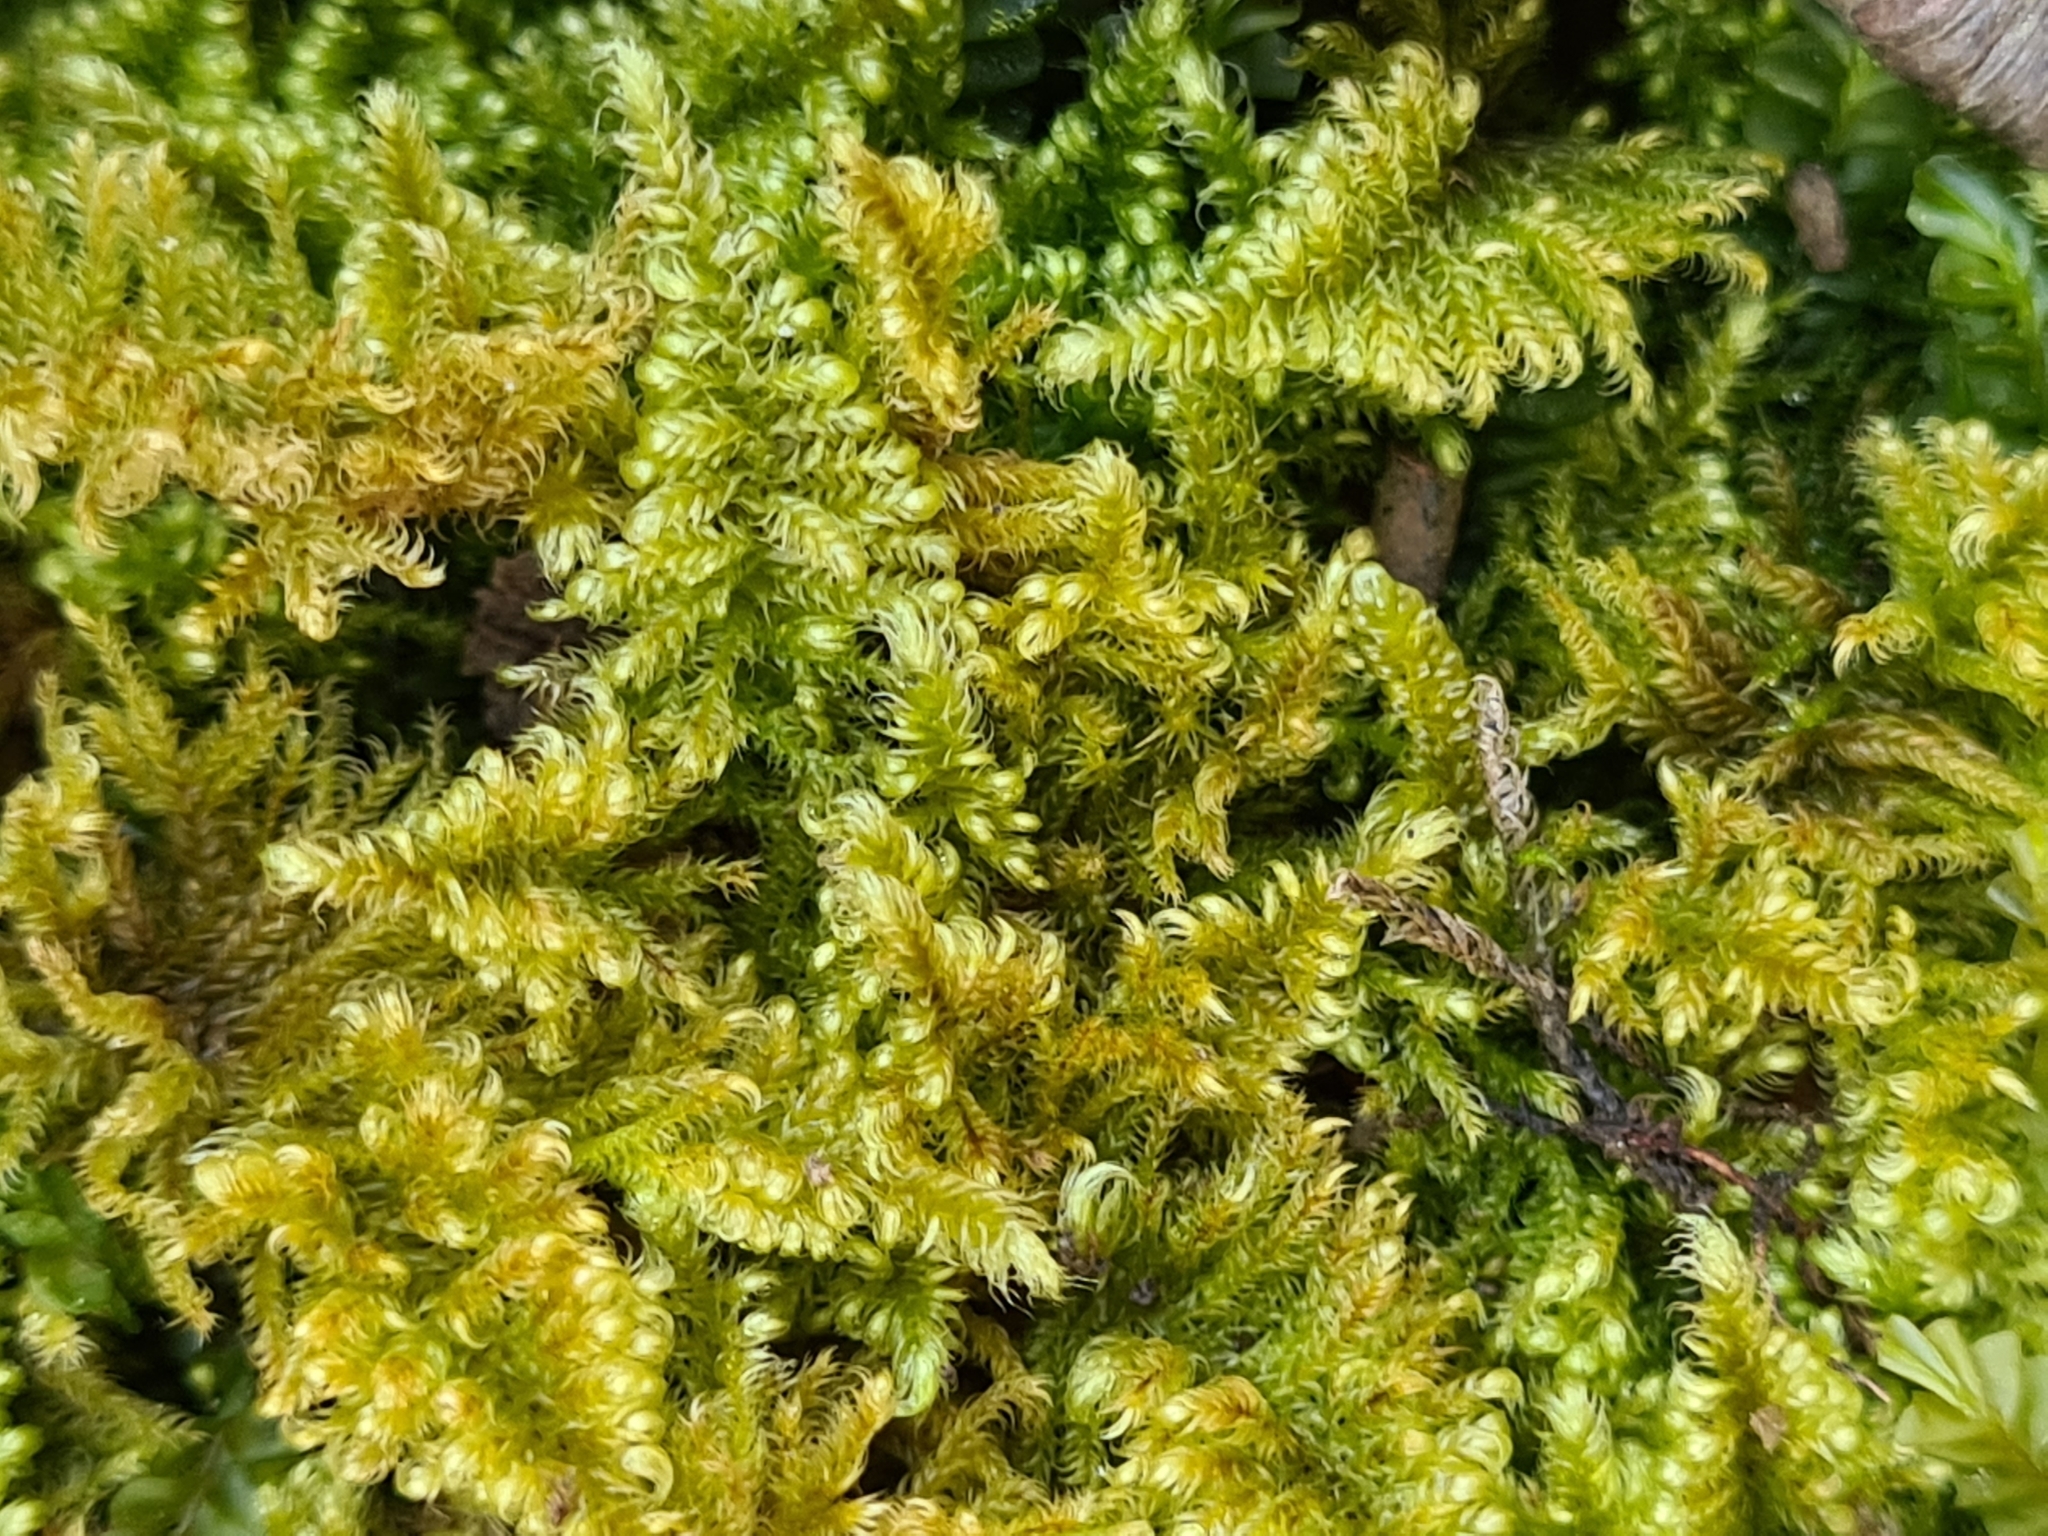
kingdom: Plantae
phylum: Bryophyta
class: Bryopsida
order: Hypnales
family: Myuriaceae
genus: Ctenidium
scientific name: Ctenidium molluscum
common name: Chalk comb-moss
